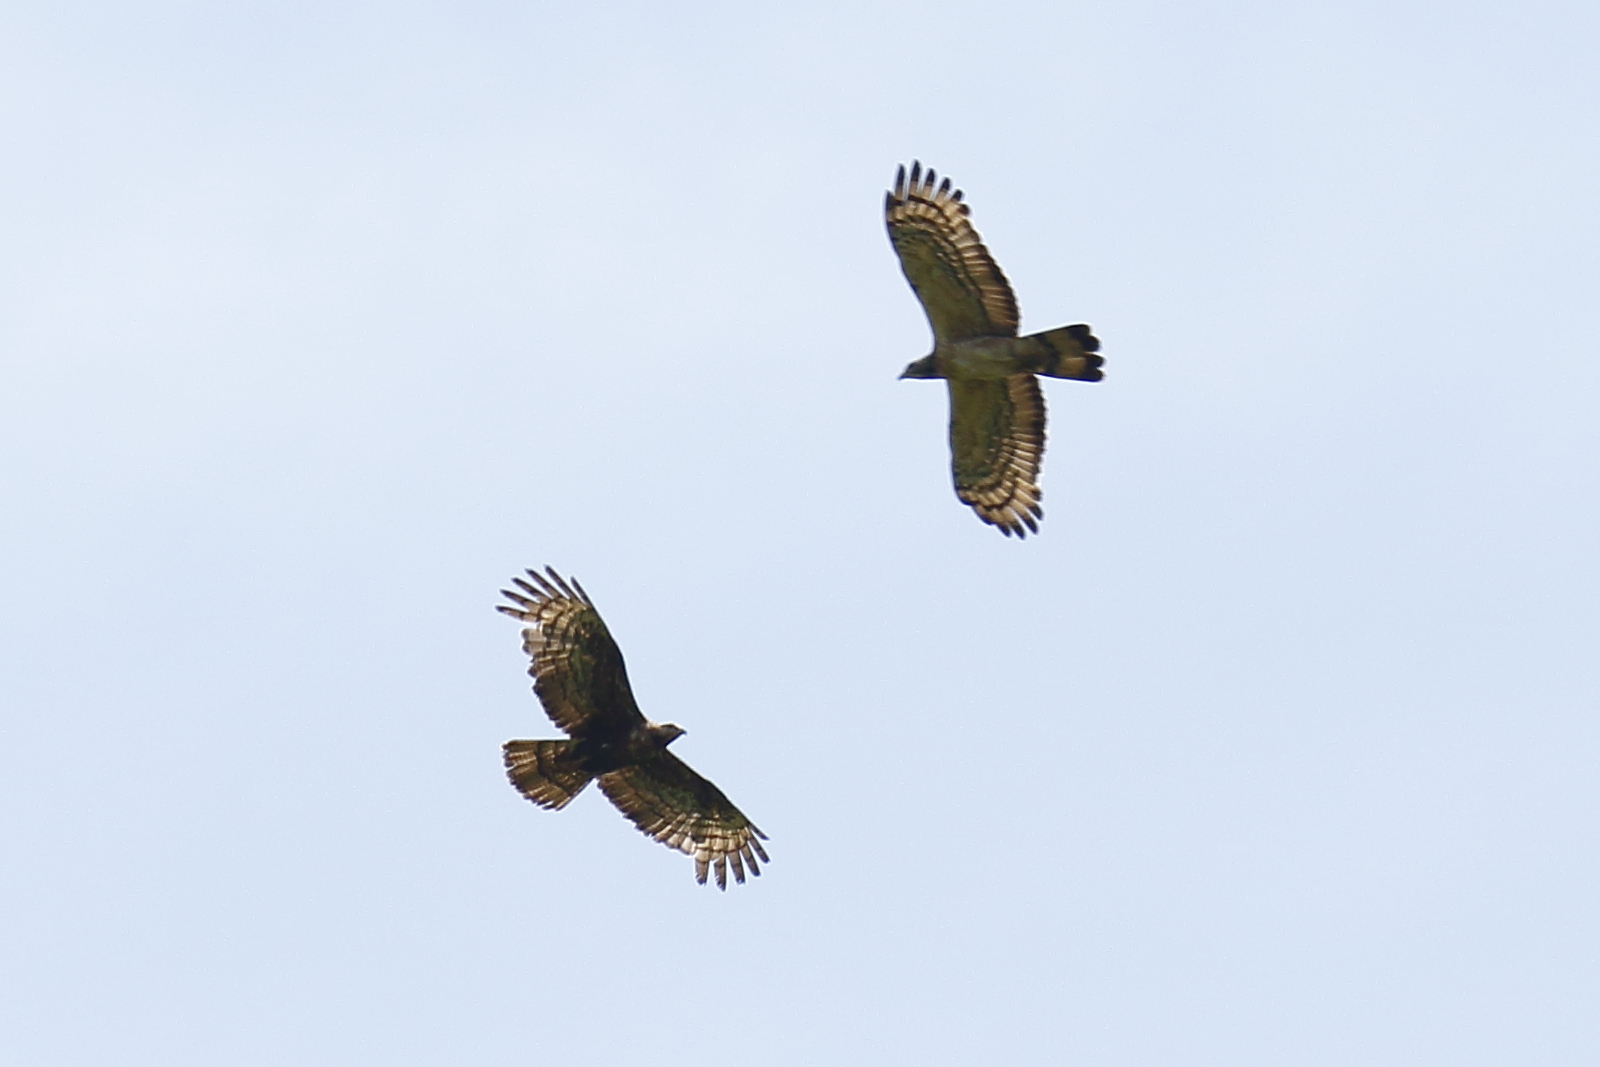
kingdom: Animalia
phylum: Chordata
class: Aves
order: Accipitriformes
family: Accipitridae
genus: Pernis
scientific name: Pernis ptilorhynchus
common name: Crested honey buzzard
